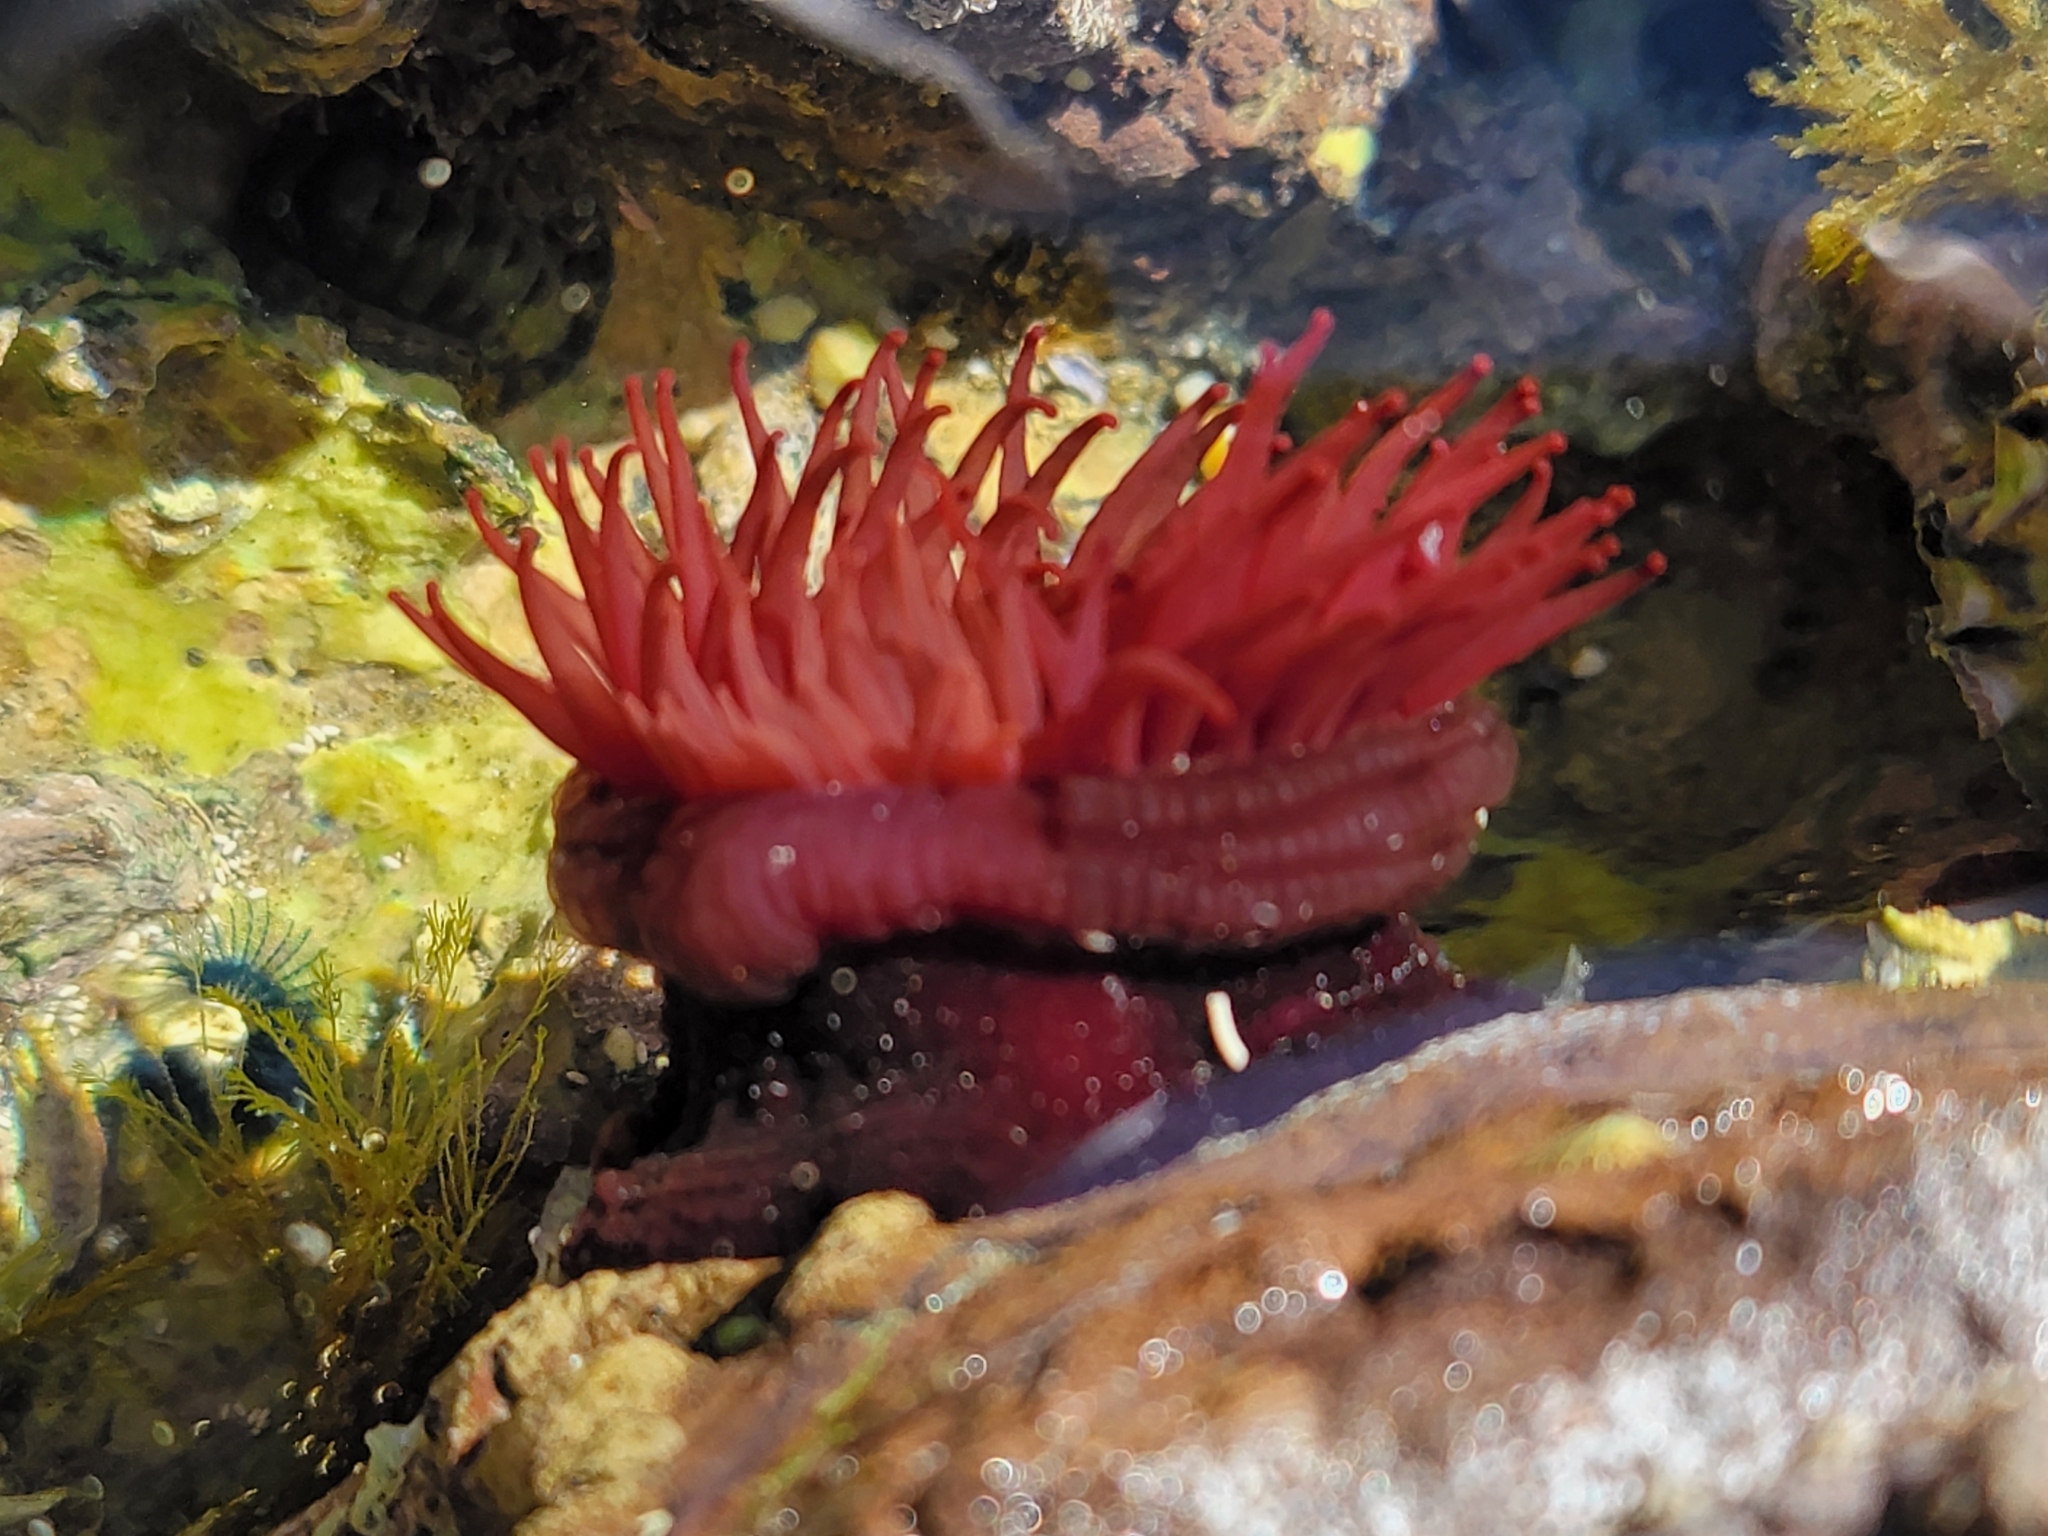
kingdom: Animalia
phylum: Cnidaria
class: Anthozoa
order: Actiniaria
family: Actiniidae
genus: Actinia
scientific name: Actinia tenebrosa
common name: Waratah anemone
